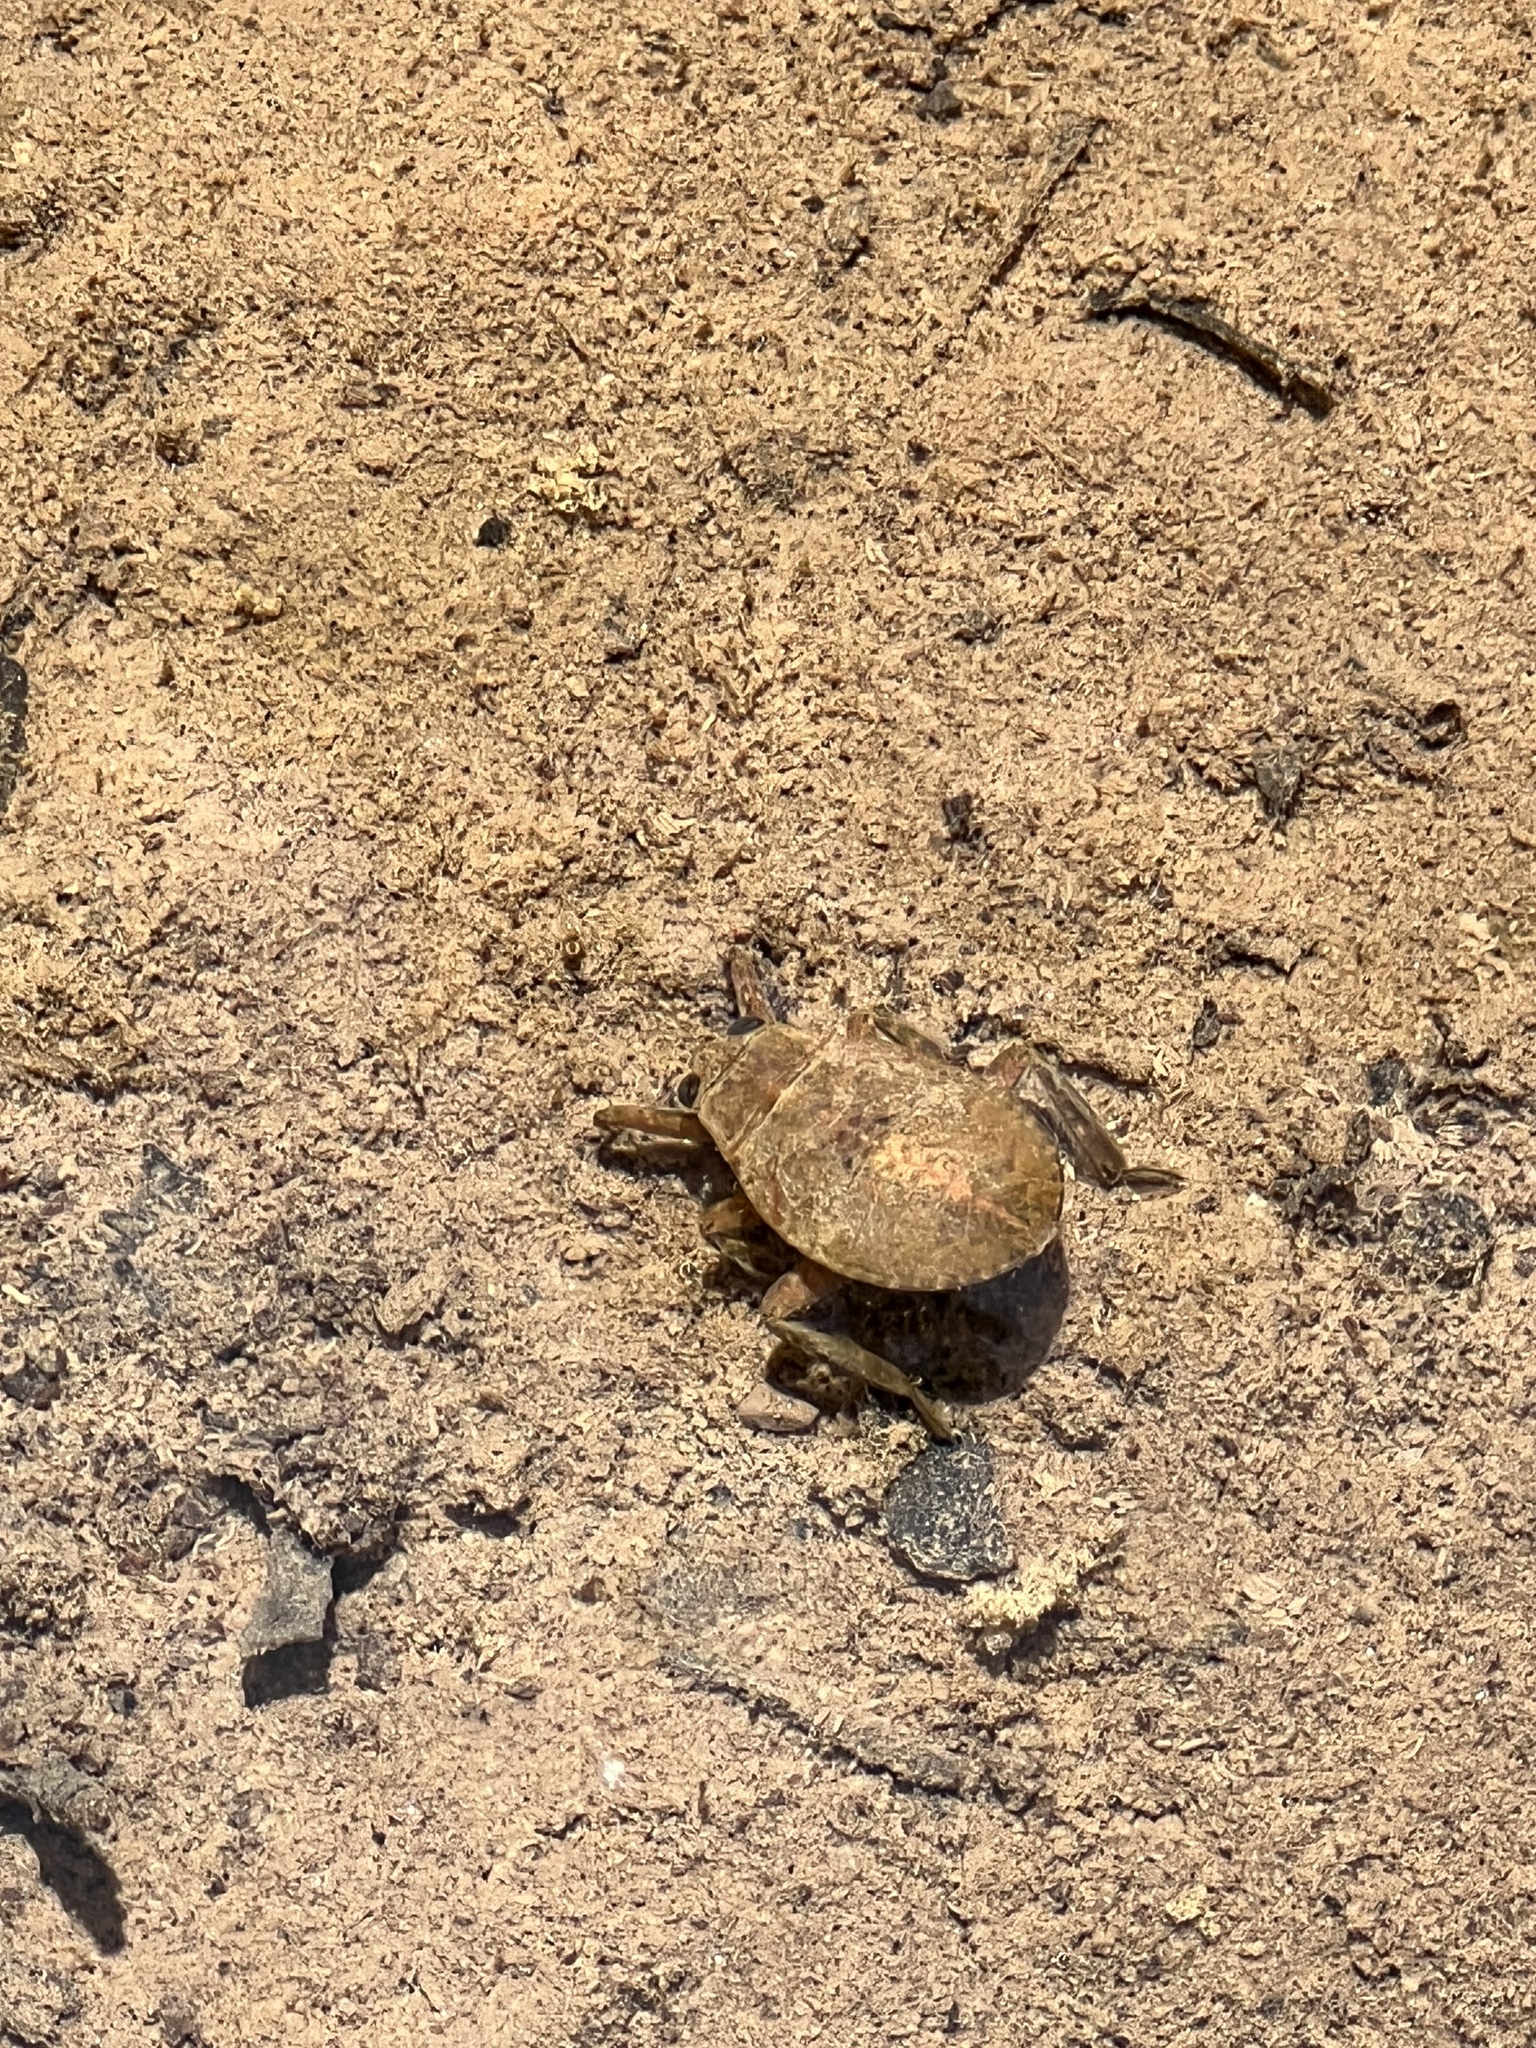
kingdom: Animalia
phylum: Arthropoda
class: Insecta
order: Hemiptera
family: Belostomatidae
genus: Abedus
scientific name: Abedus
